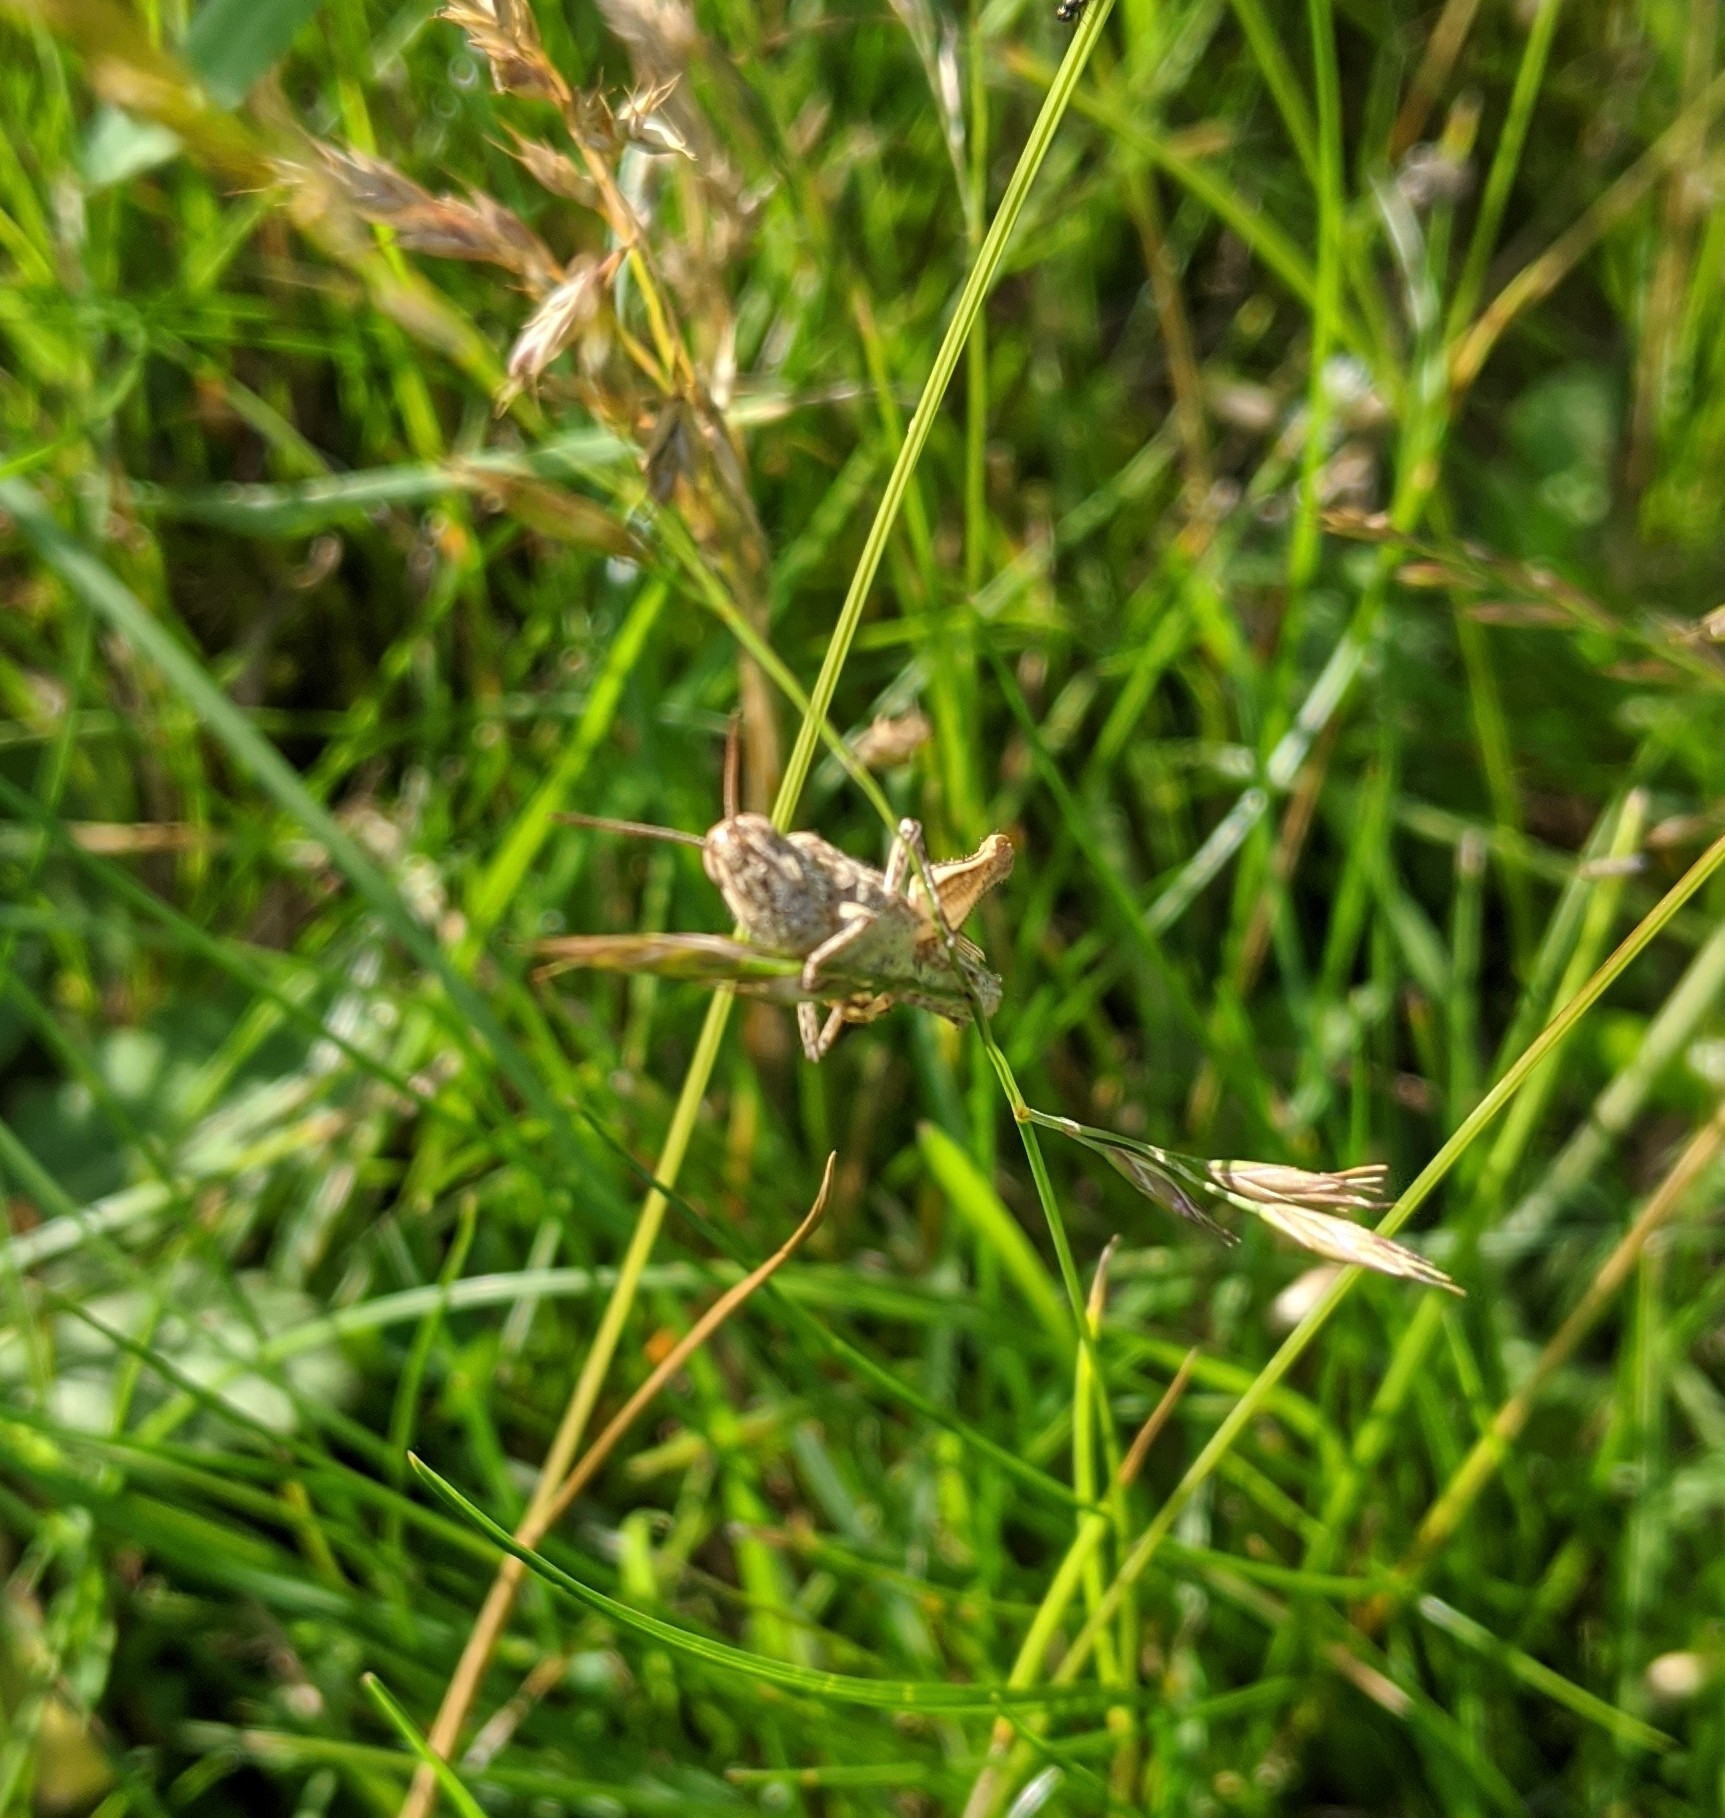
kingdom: Animalia
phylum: Arthropoda
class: Insecta
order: Orthoptera
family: Acrididae
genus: Chorthippus
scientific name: Chorthippus brunneus
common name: Field grasshopper
